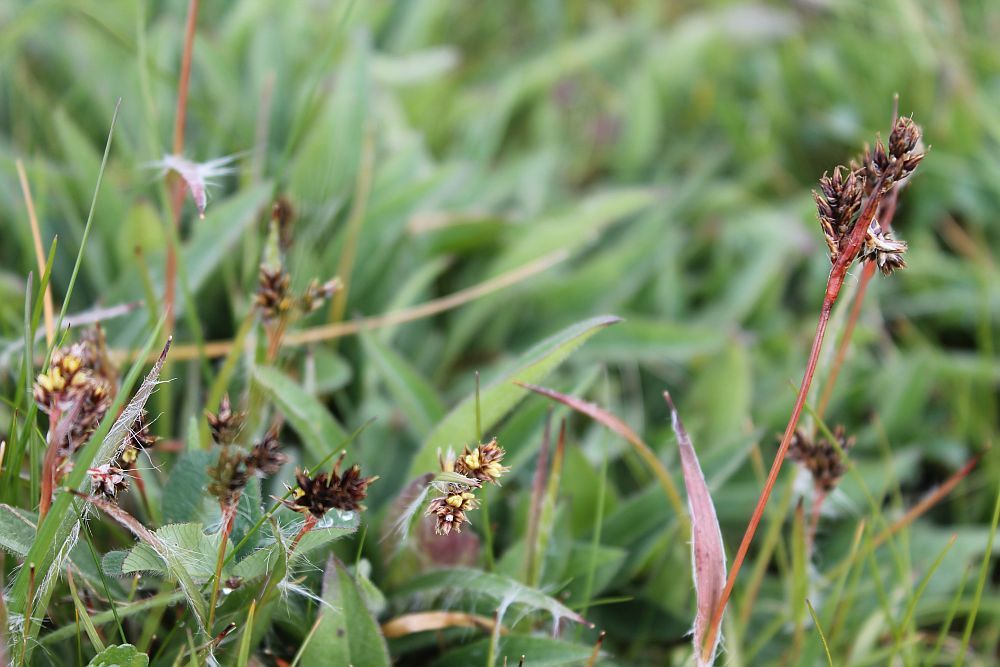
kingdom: Plantae
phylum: Tracheophyta
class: Liliopsida
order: Poales
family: Juncaceae
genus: Luzula
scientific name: Luzula campestris
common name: Field wood-rush
